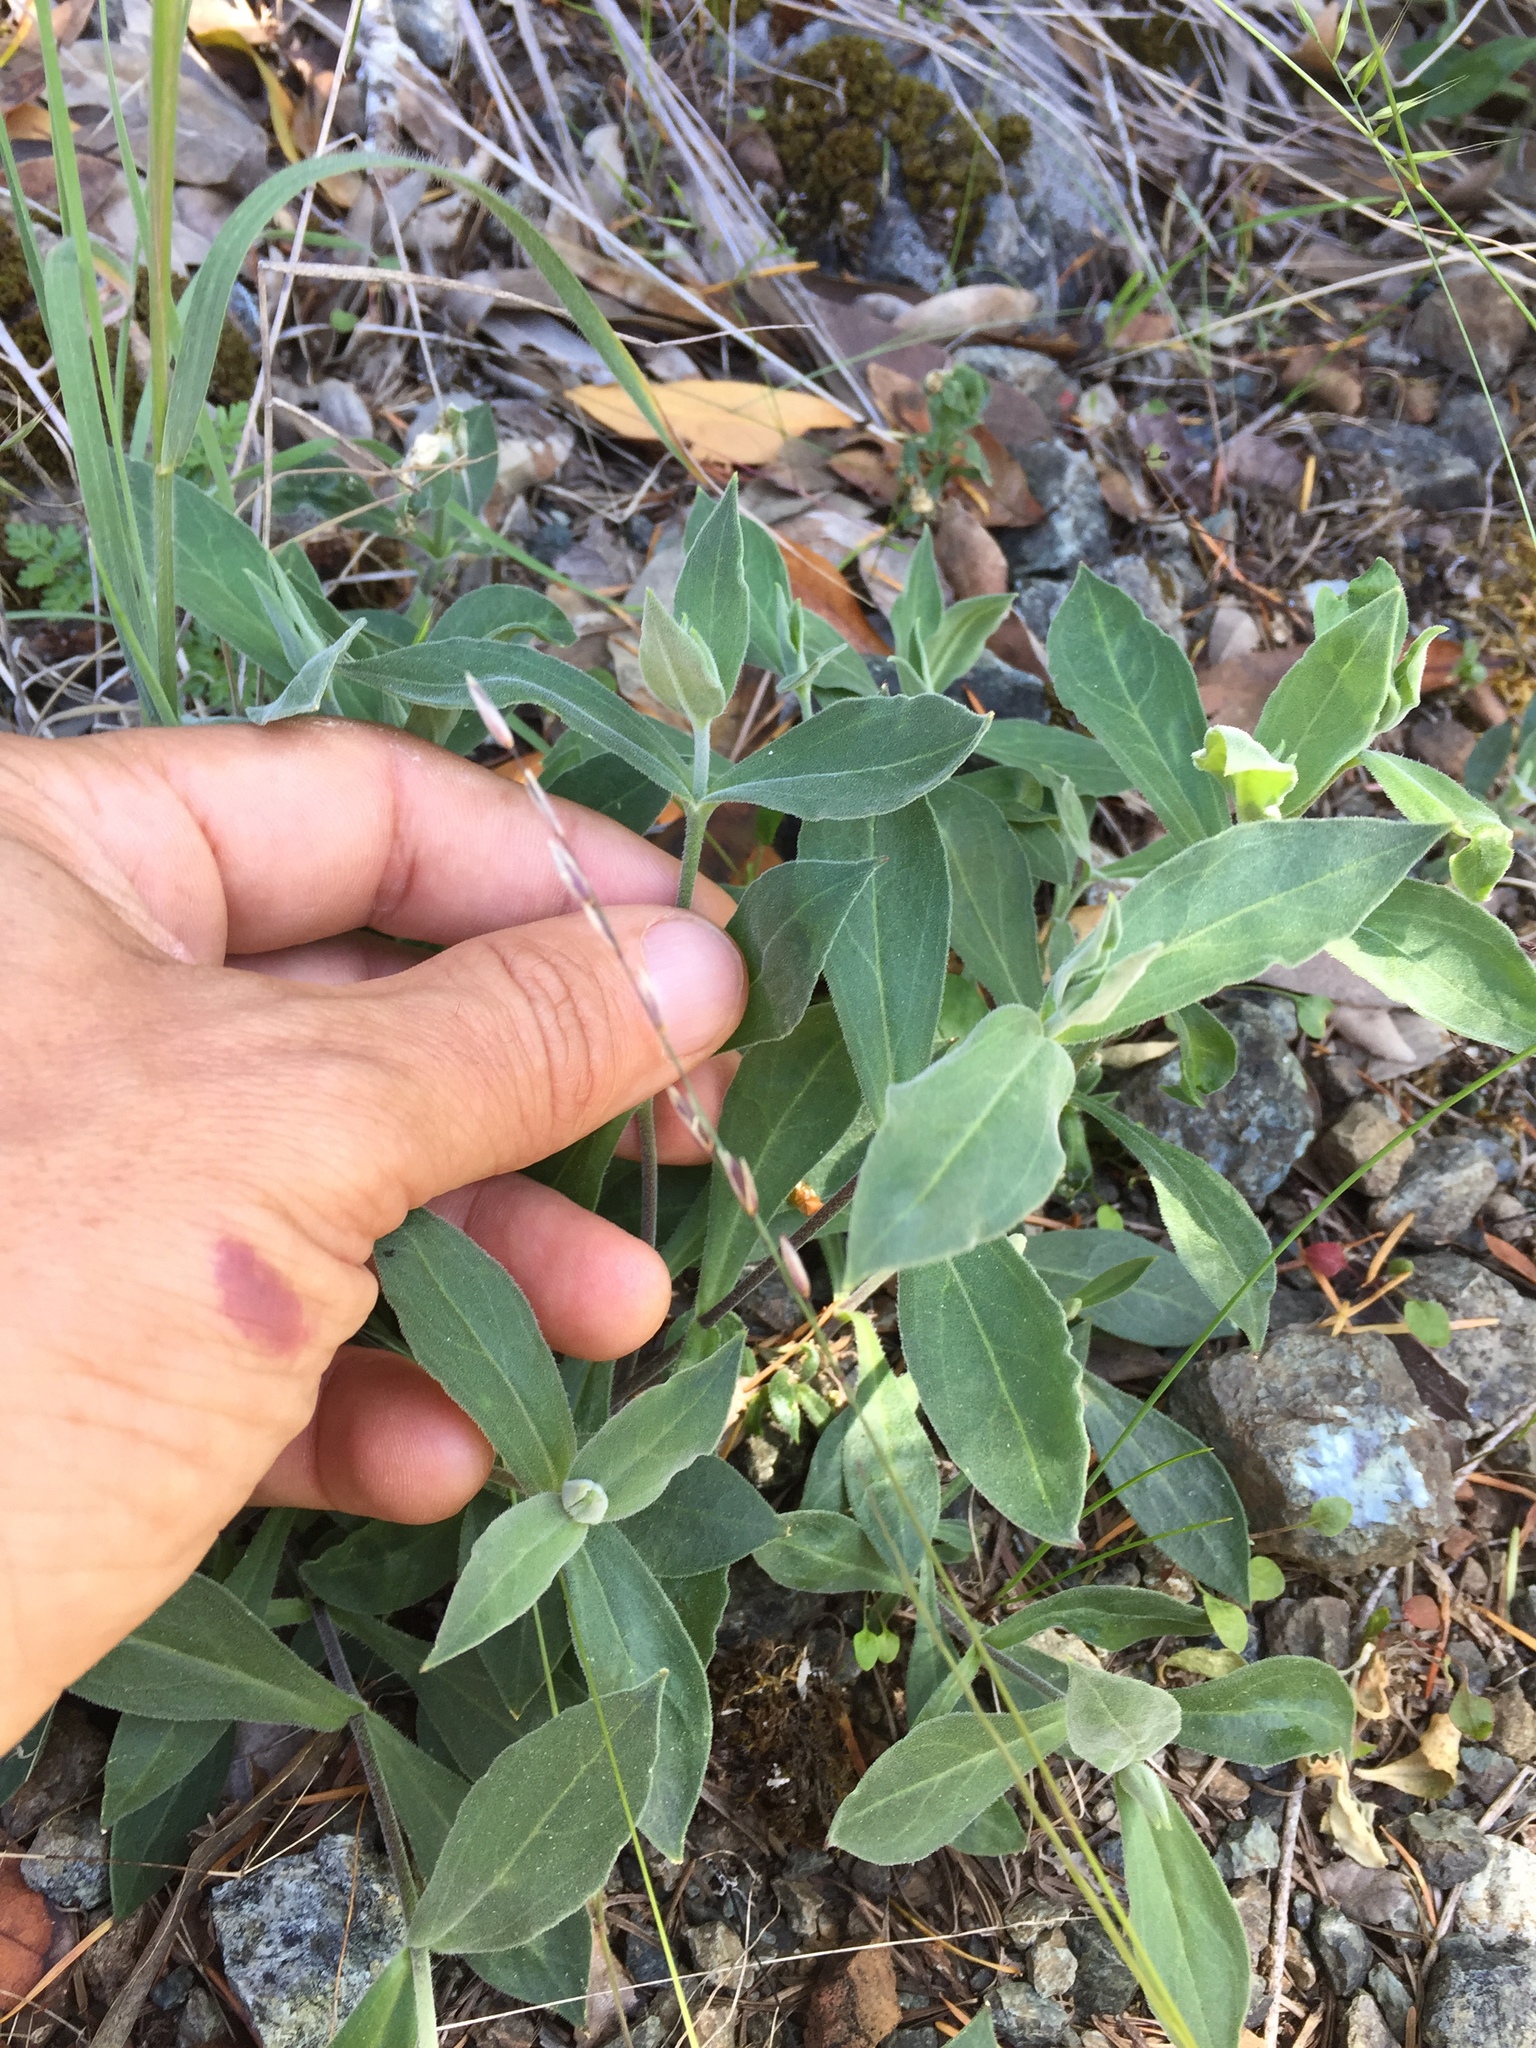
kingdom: Plantae
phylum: Tracheophyta
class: Magnoliopsida
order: Caryophyllales
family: Caryophyllaceae
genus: Silene
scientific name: Silene laciniata
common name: Indian-pink
